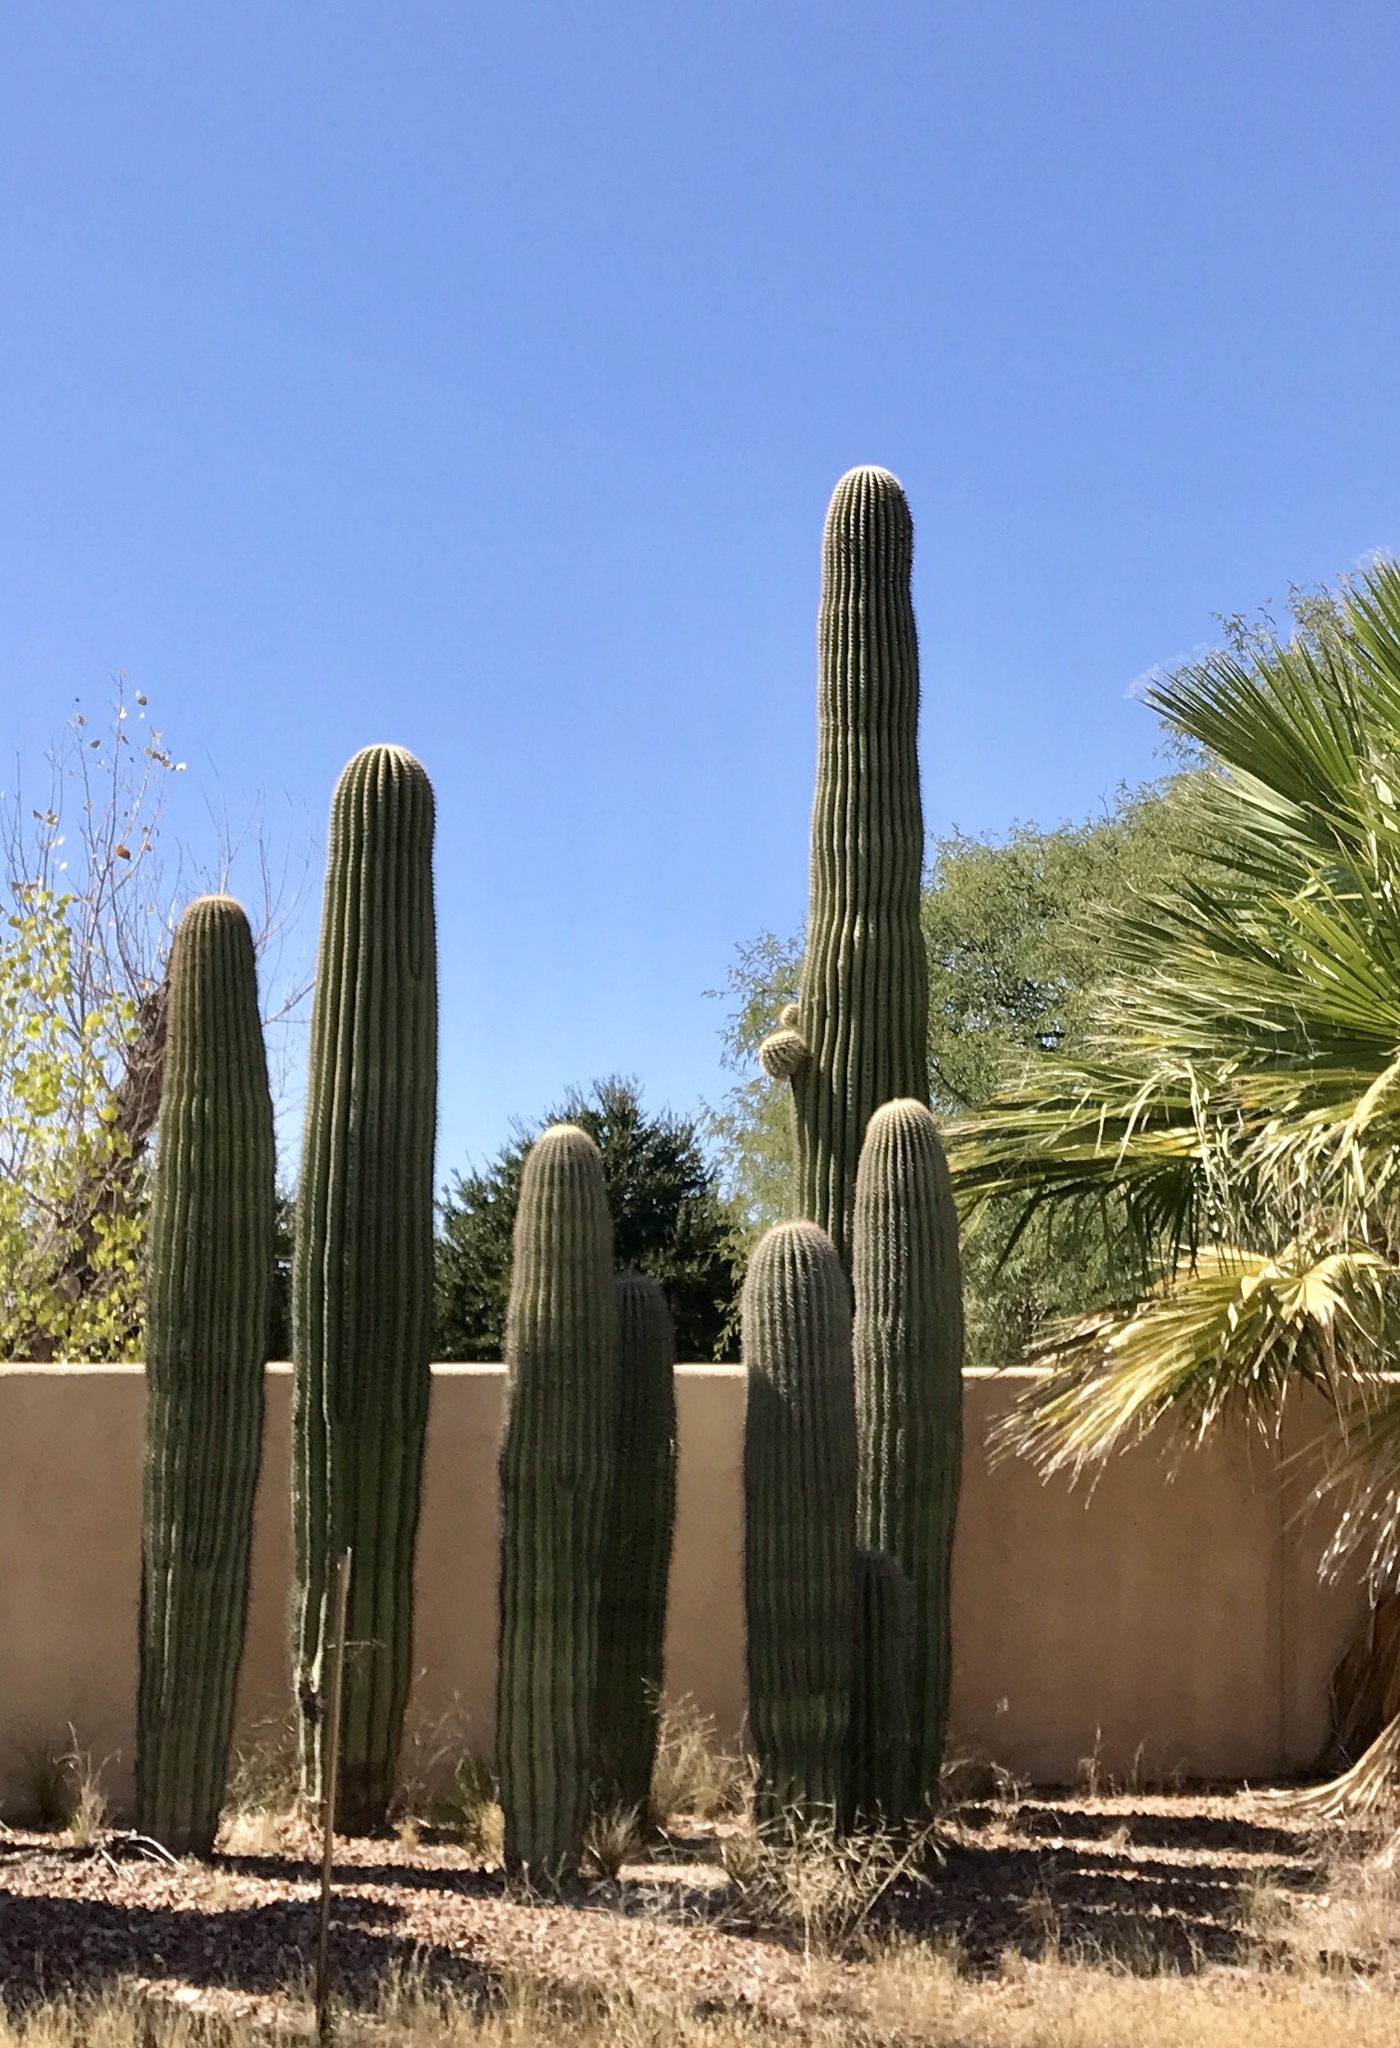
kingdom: Plantae
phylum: Tracheophyta
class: Magnoliopsida
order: Caryophyllales
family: Cactaceae
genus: Carnegiea
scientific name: Carnegiea gigantea
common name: Saguaro
